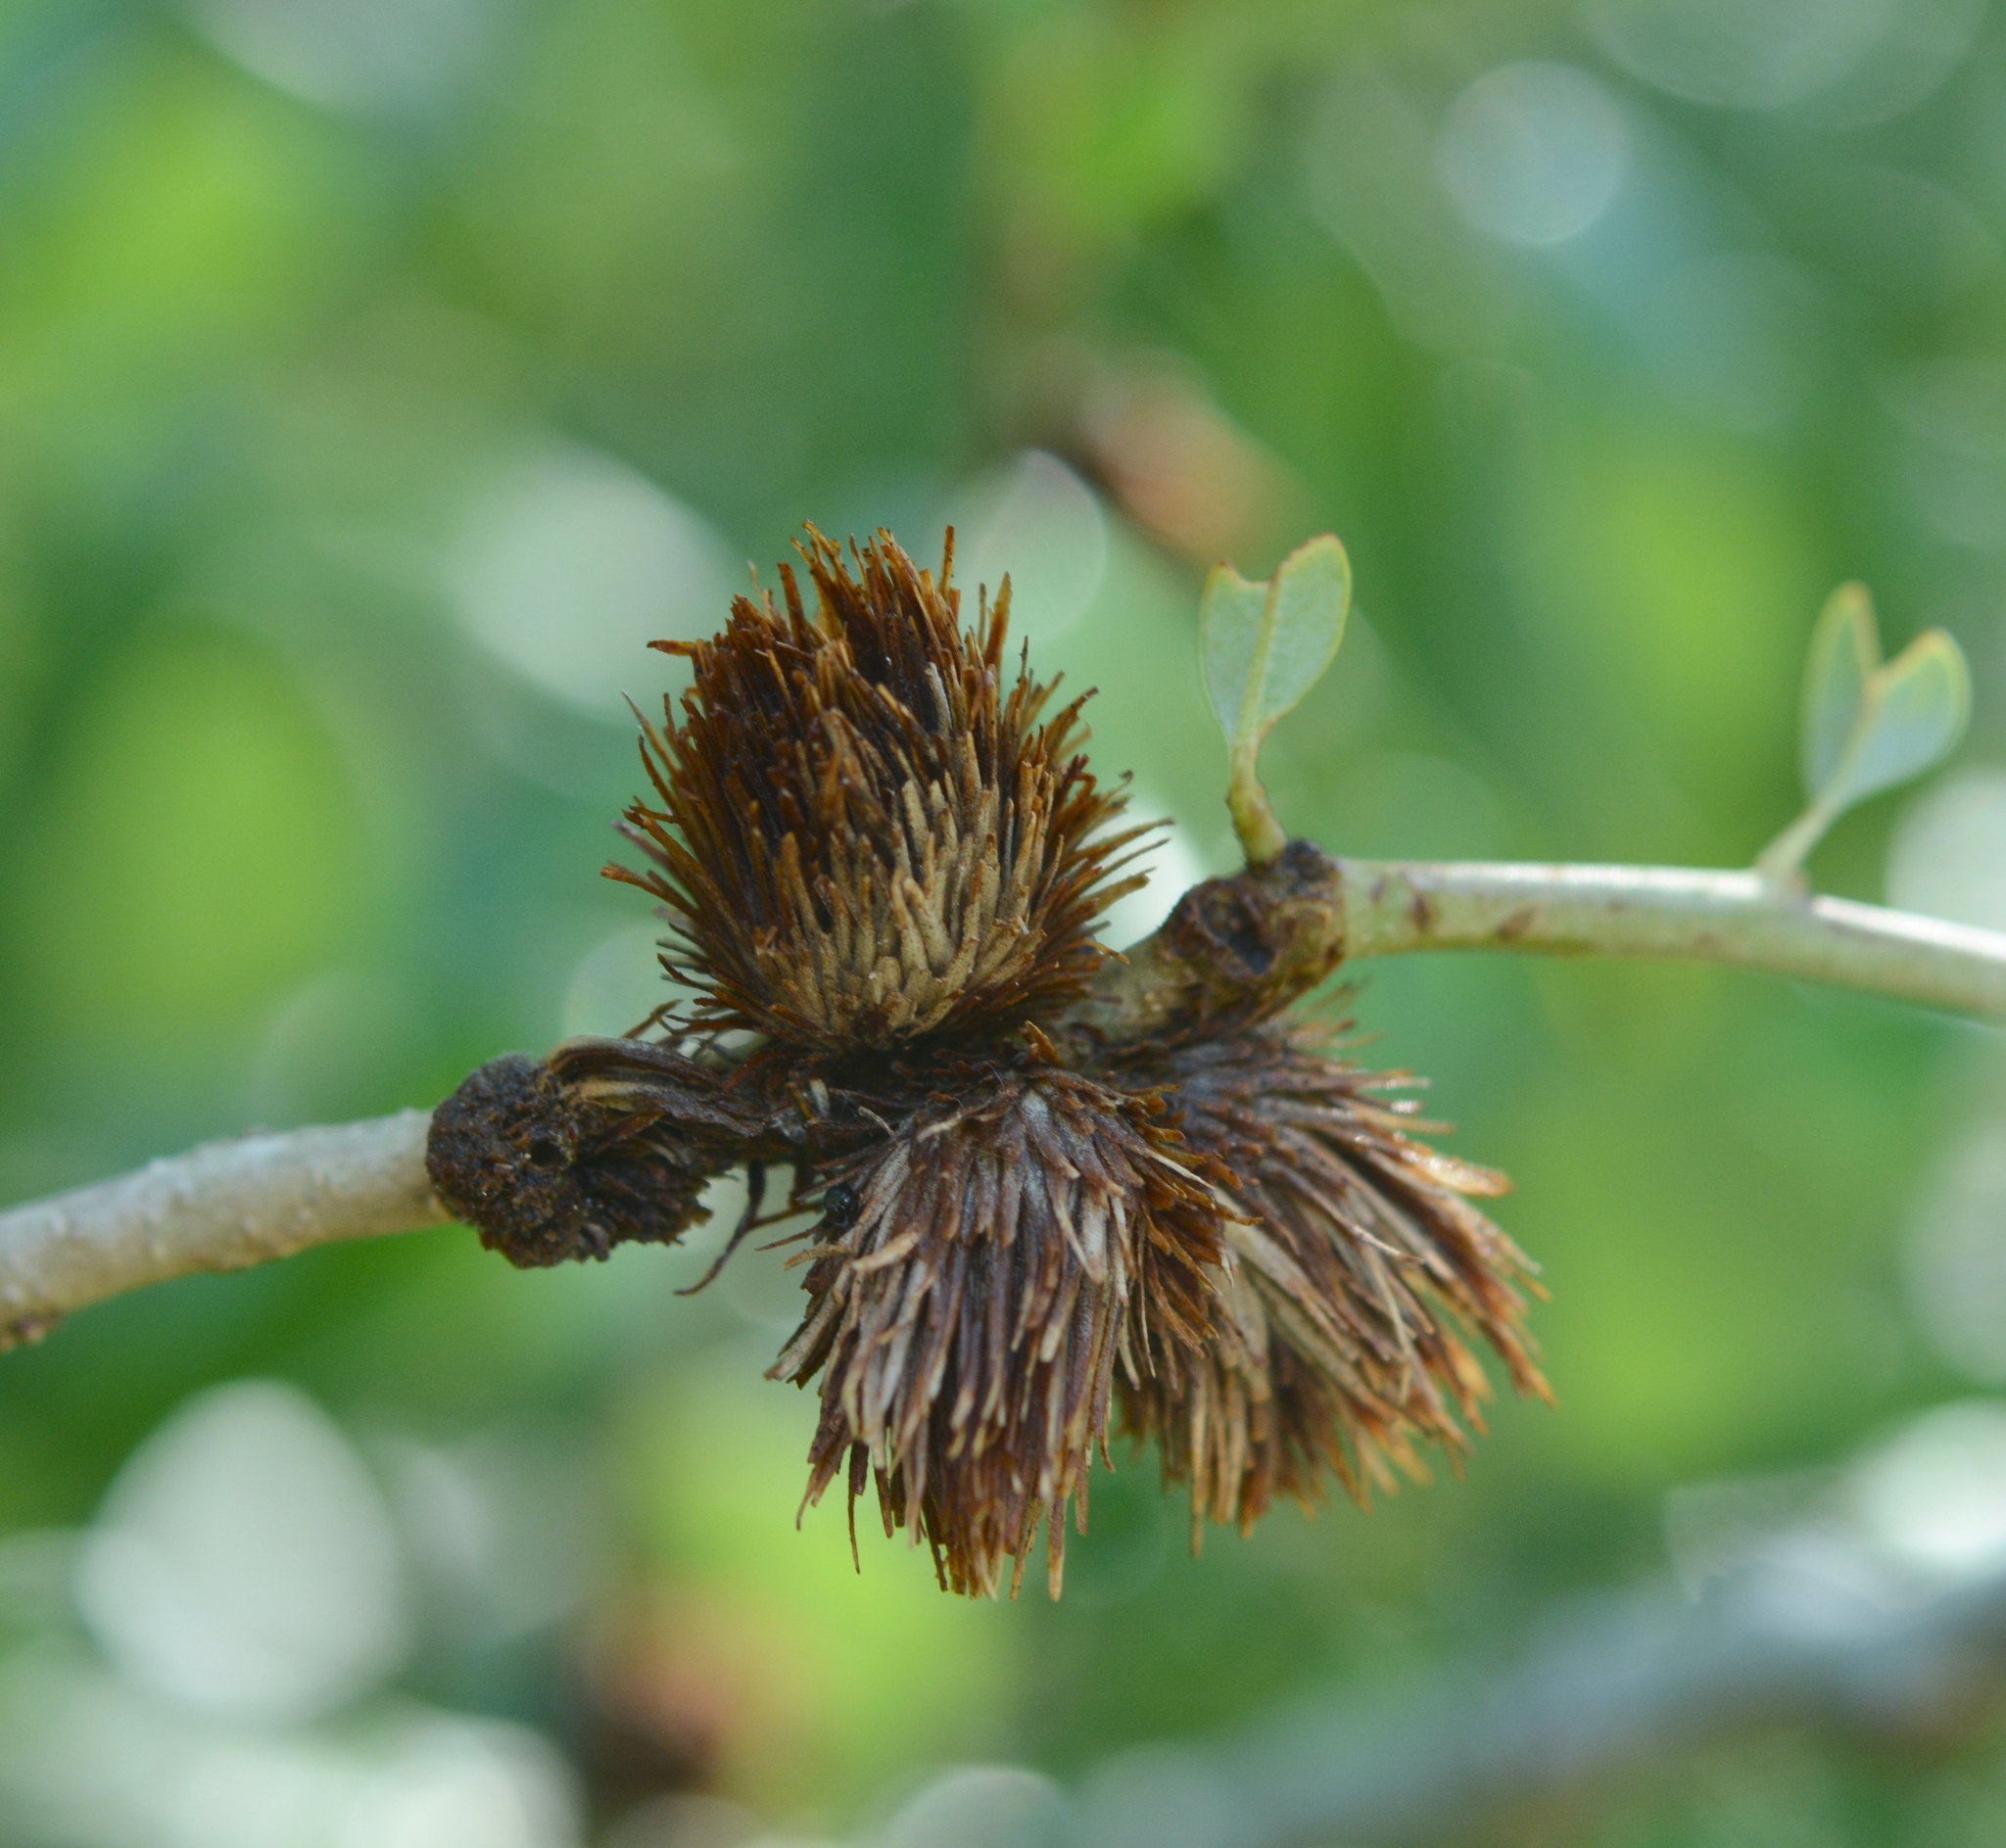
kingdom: Animalia
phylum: Arthropoda
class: Insecta
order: Hymenoptera
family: Cynipidae
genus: Andricus
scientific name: Andricus quercusfoliatus
